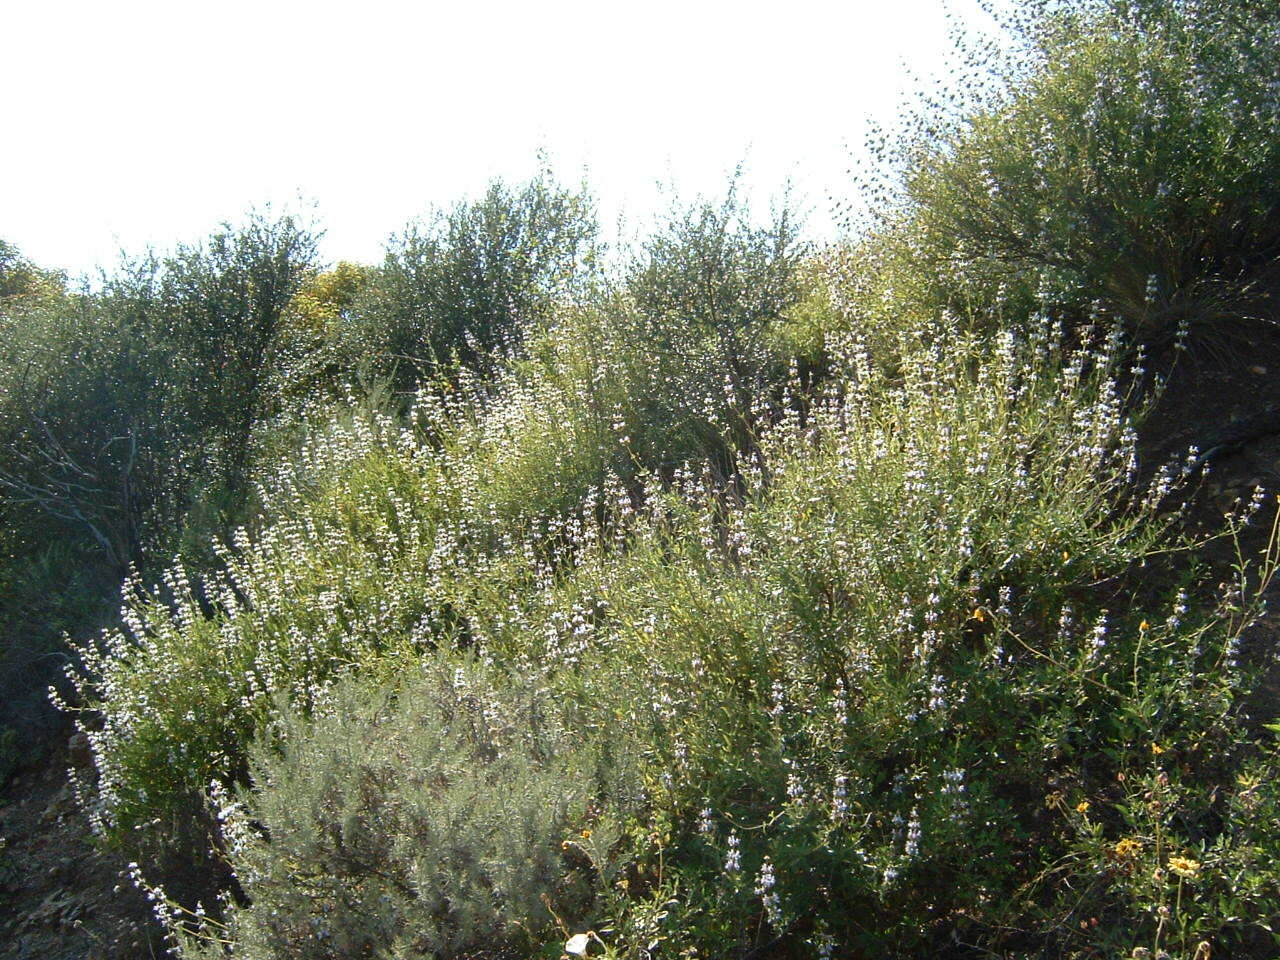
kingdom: Plantae
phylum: Tracheophyta
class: Magnoliopsida
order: Lamiales
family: Lamiaceae
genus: Salvia
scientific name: Salvia mellifera
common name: Black sage
